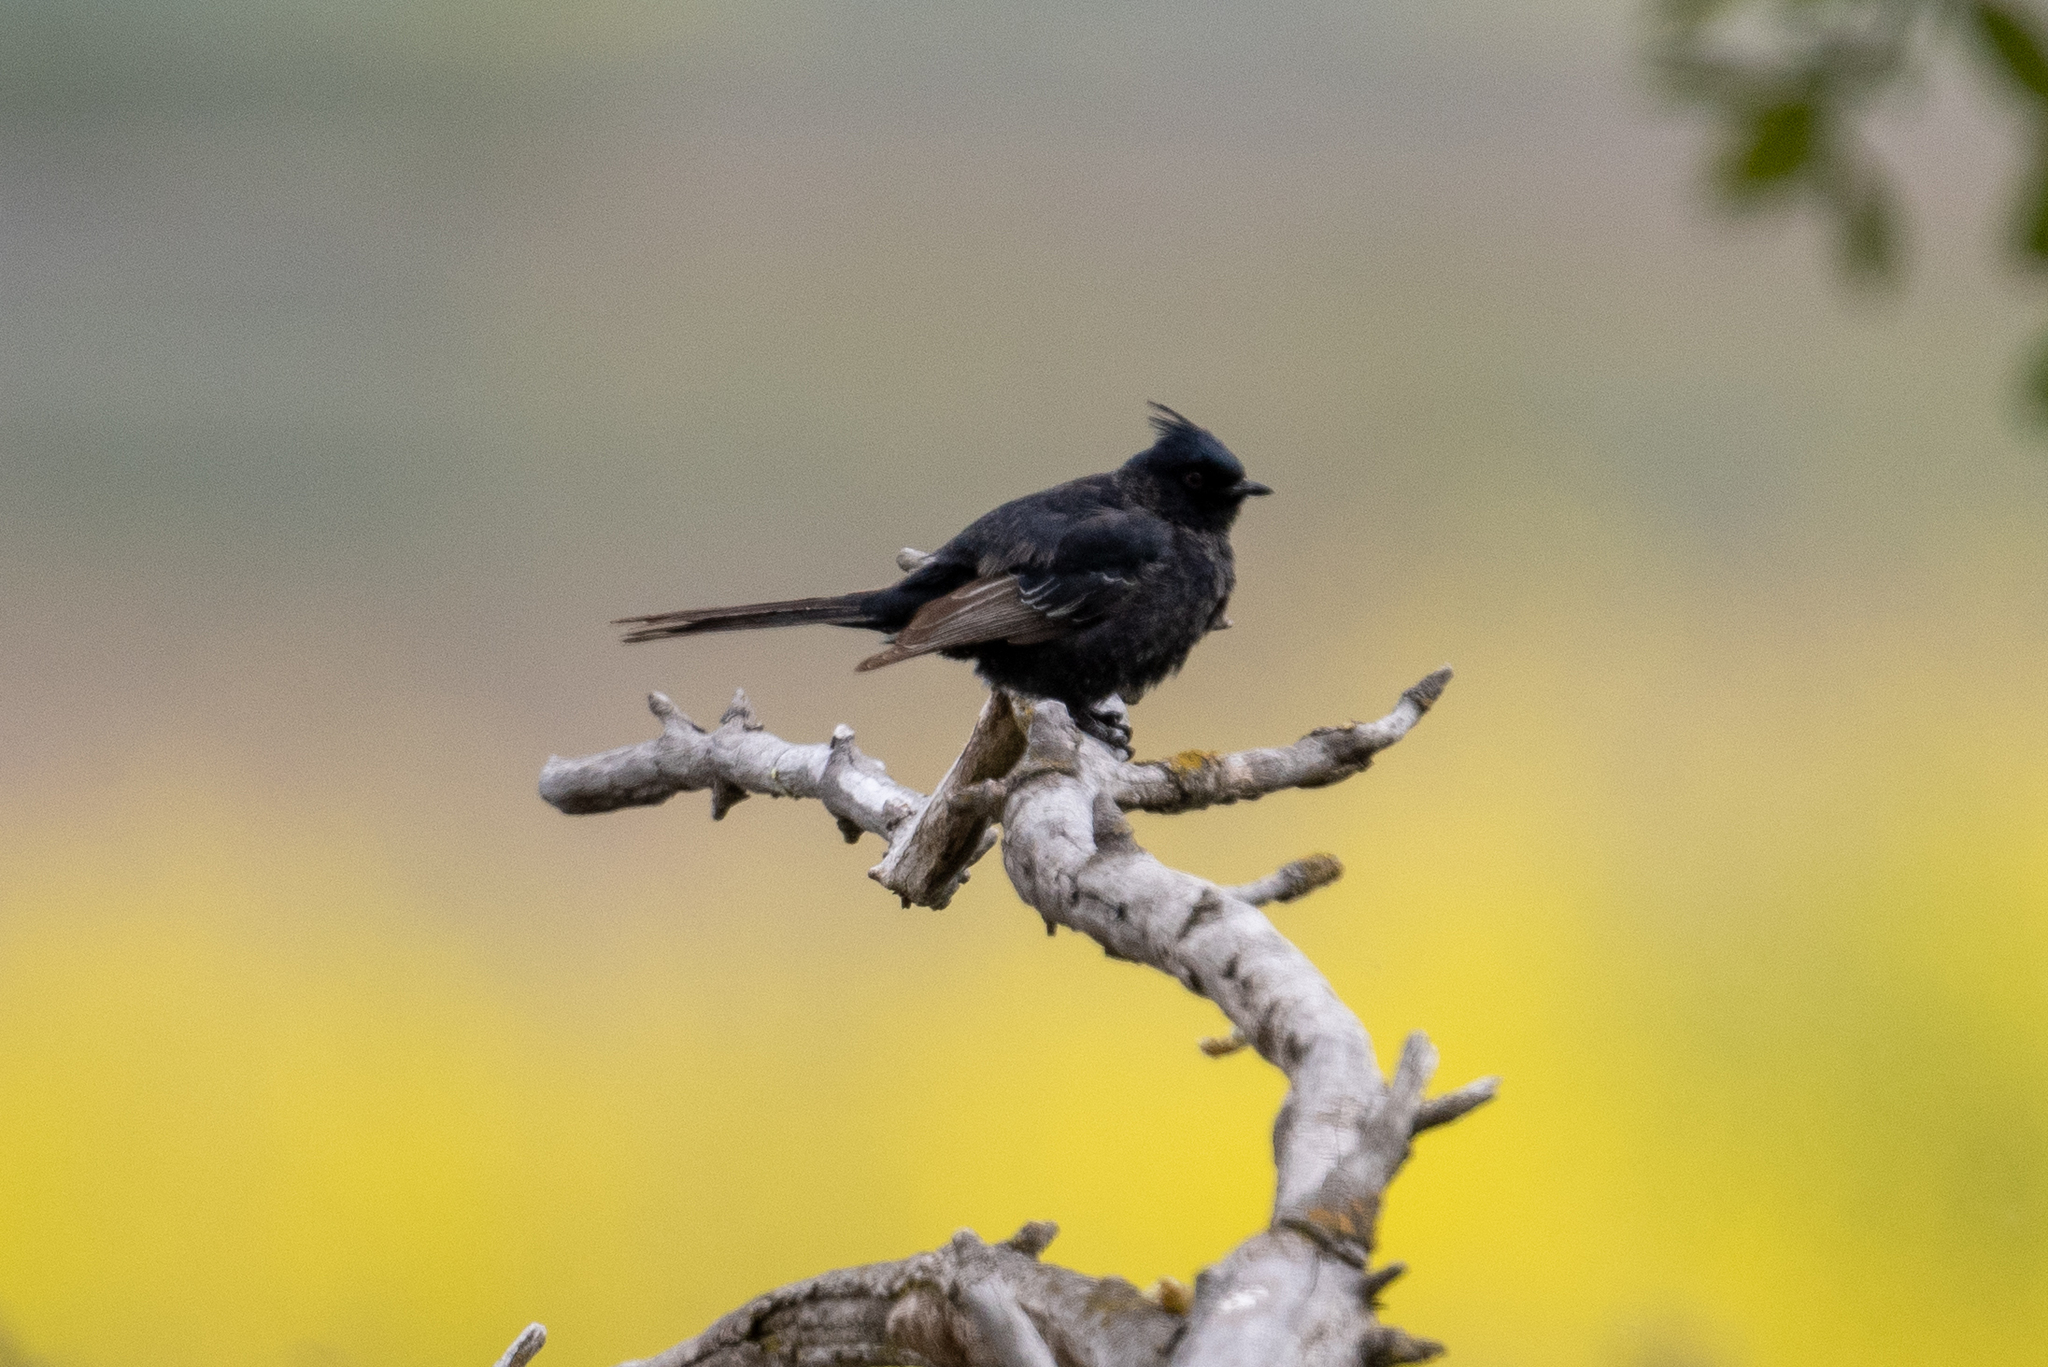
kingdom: Animalia
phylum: Chordata
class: Aves
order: Passeriformes
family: Ptilogonatidae
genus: Phainopepla
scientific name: Phainopepla nitens
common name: Phainopepla
